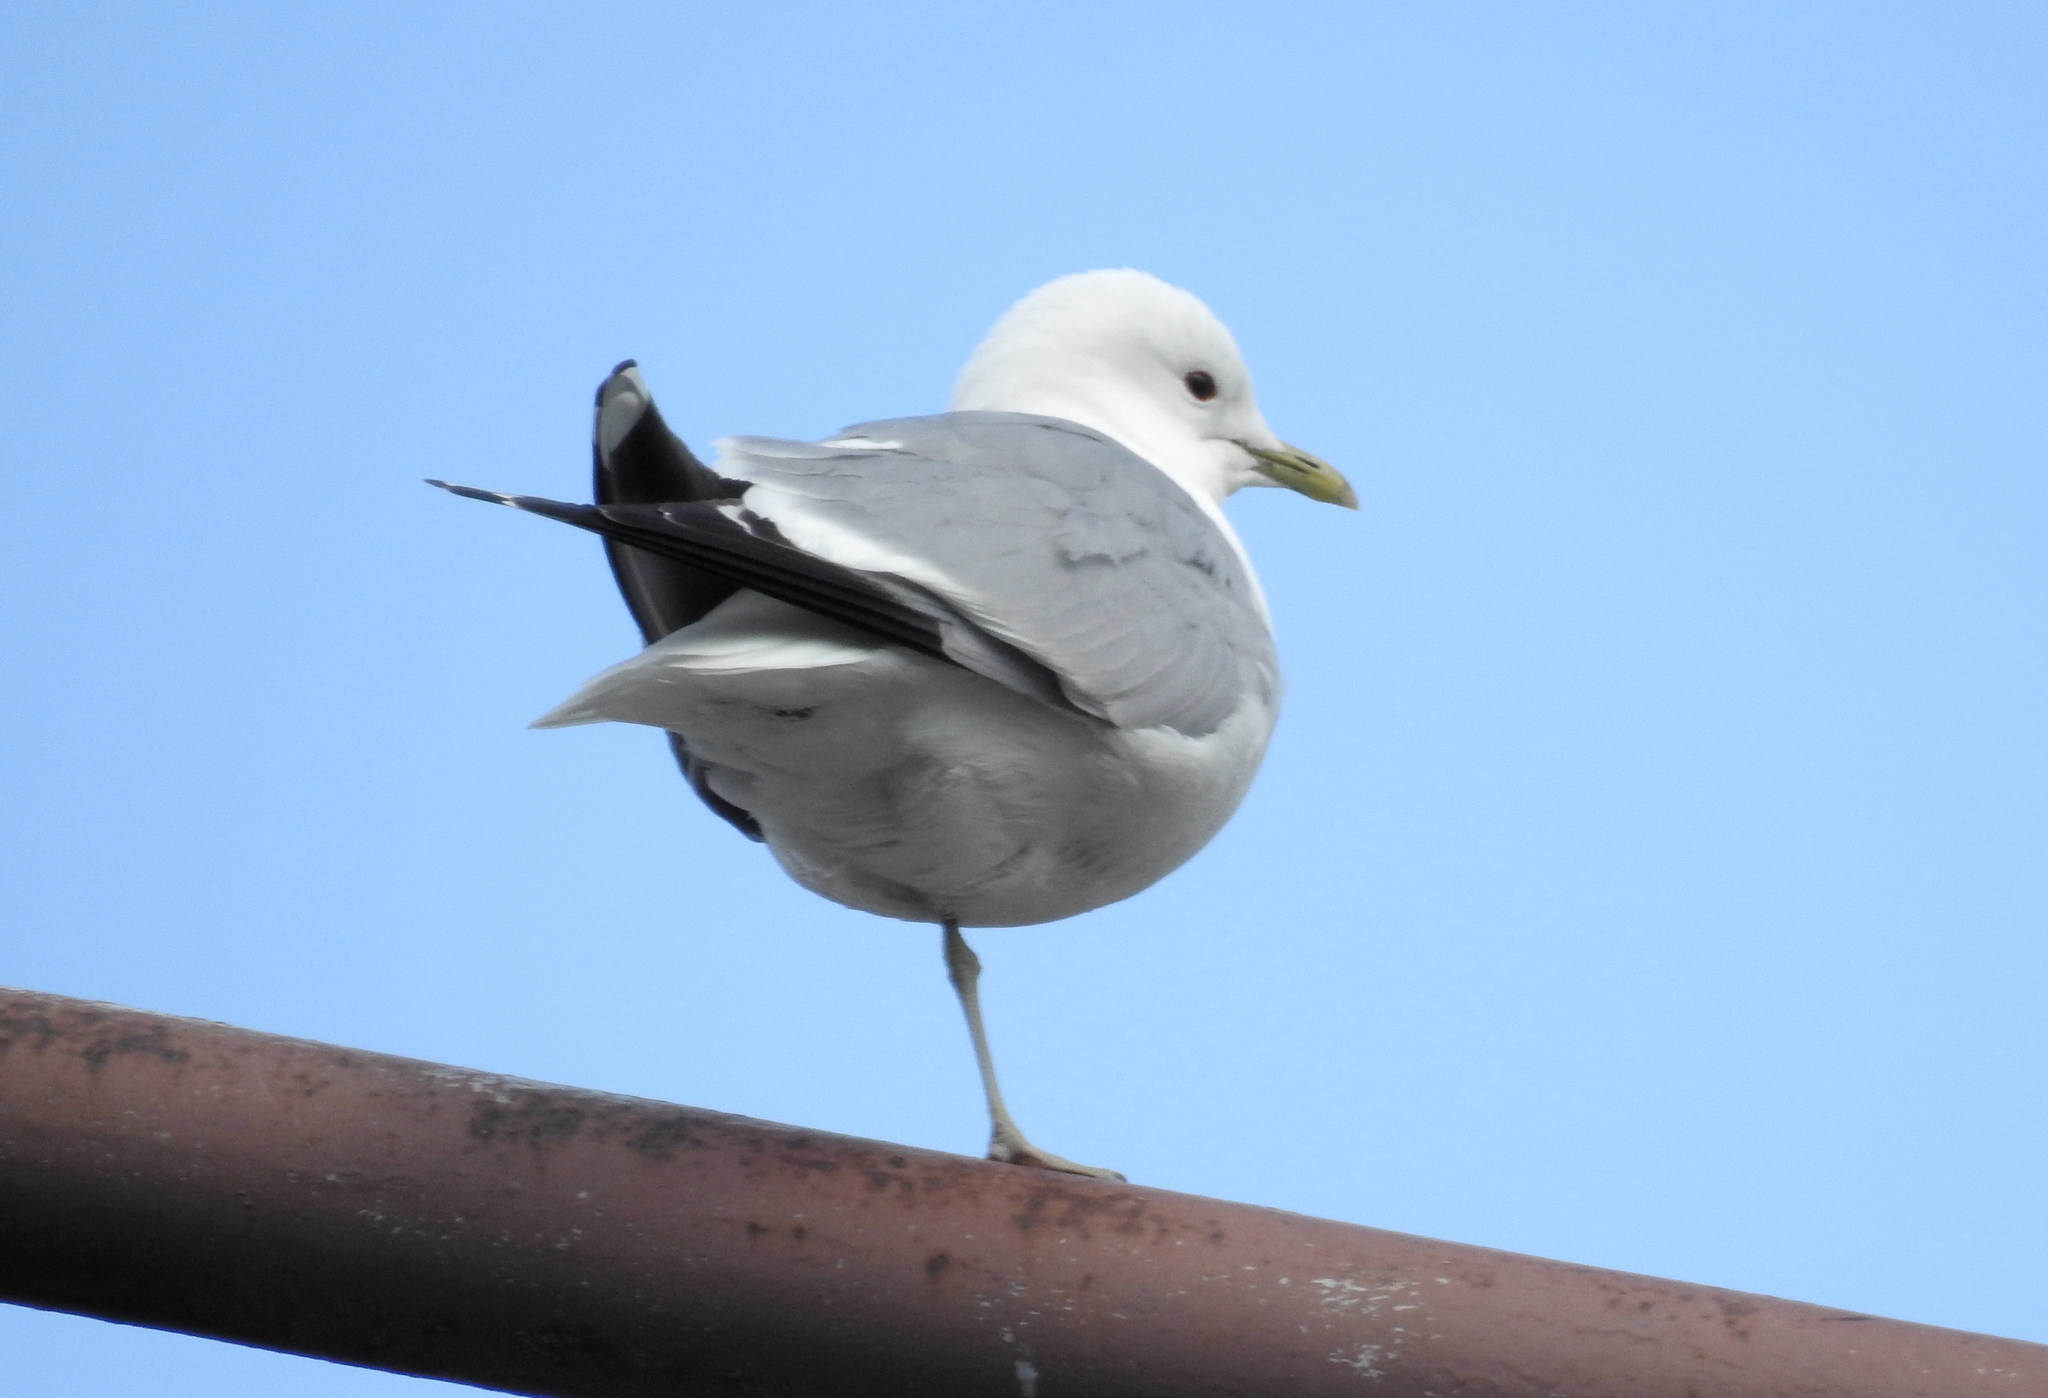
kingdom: Animalia
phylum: Chordata
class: Aves
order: Charadriiformes
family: Laridae
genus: Larus
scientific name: Larus canus
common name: Mew gull
